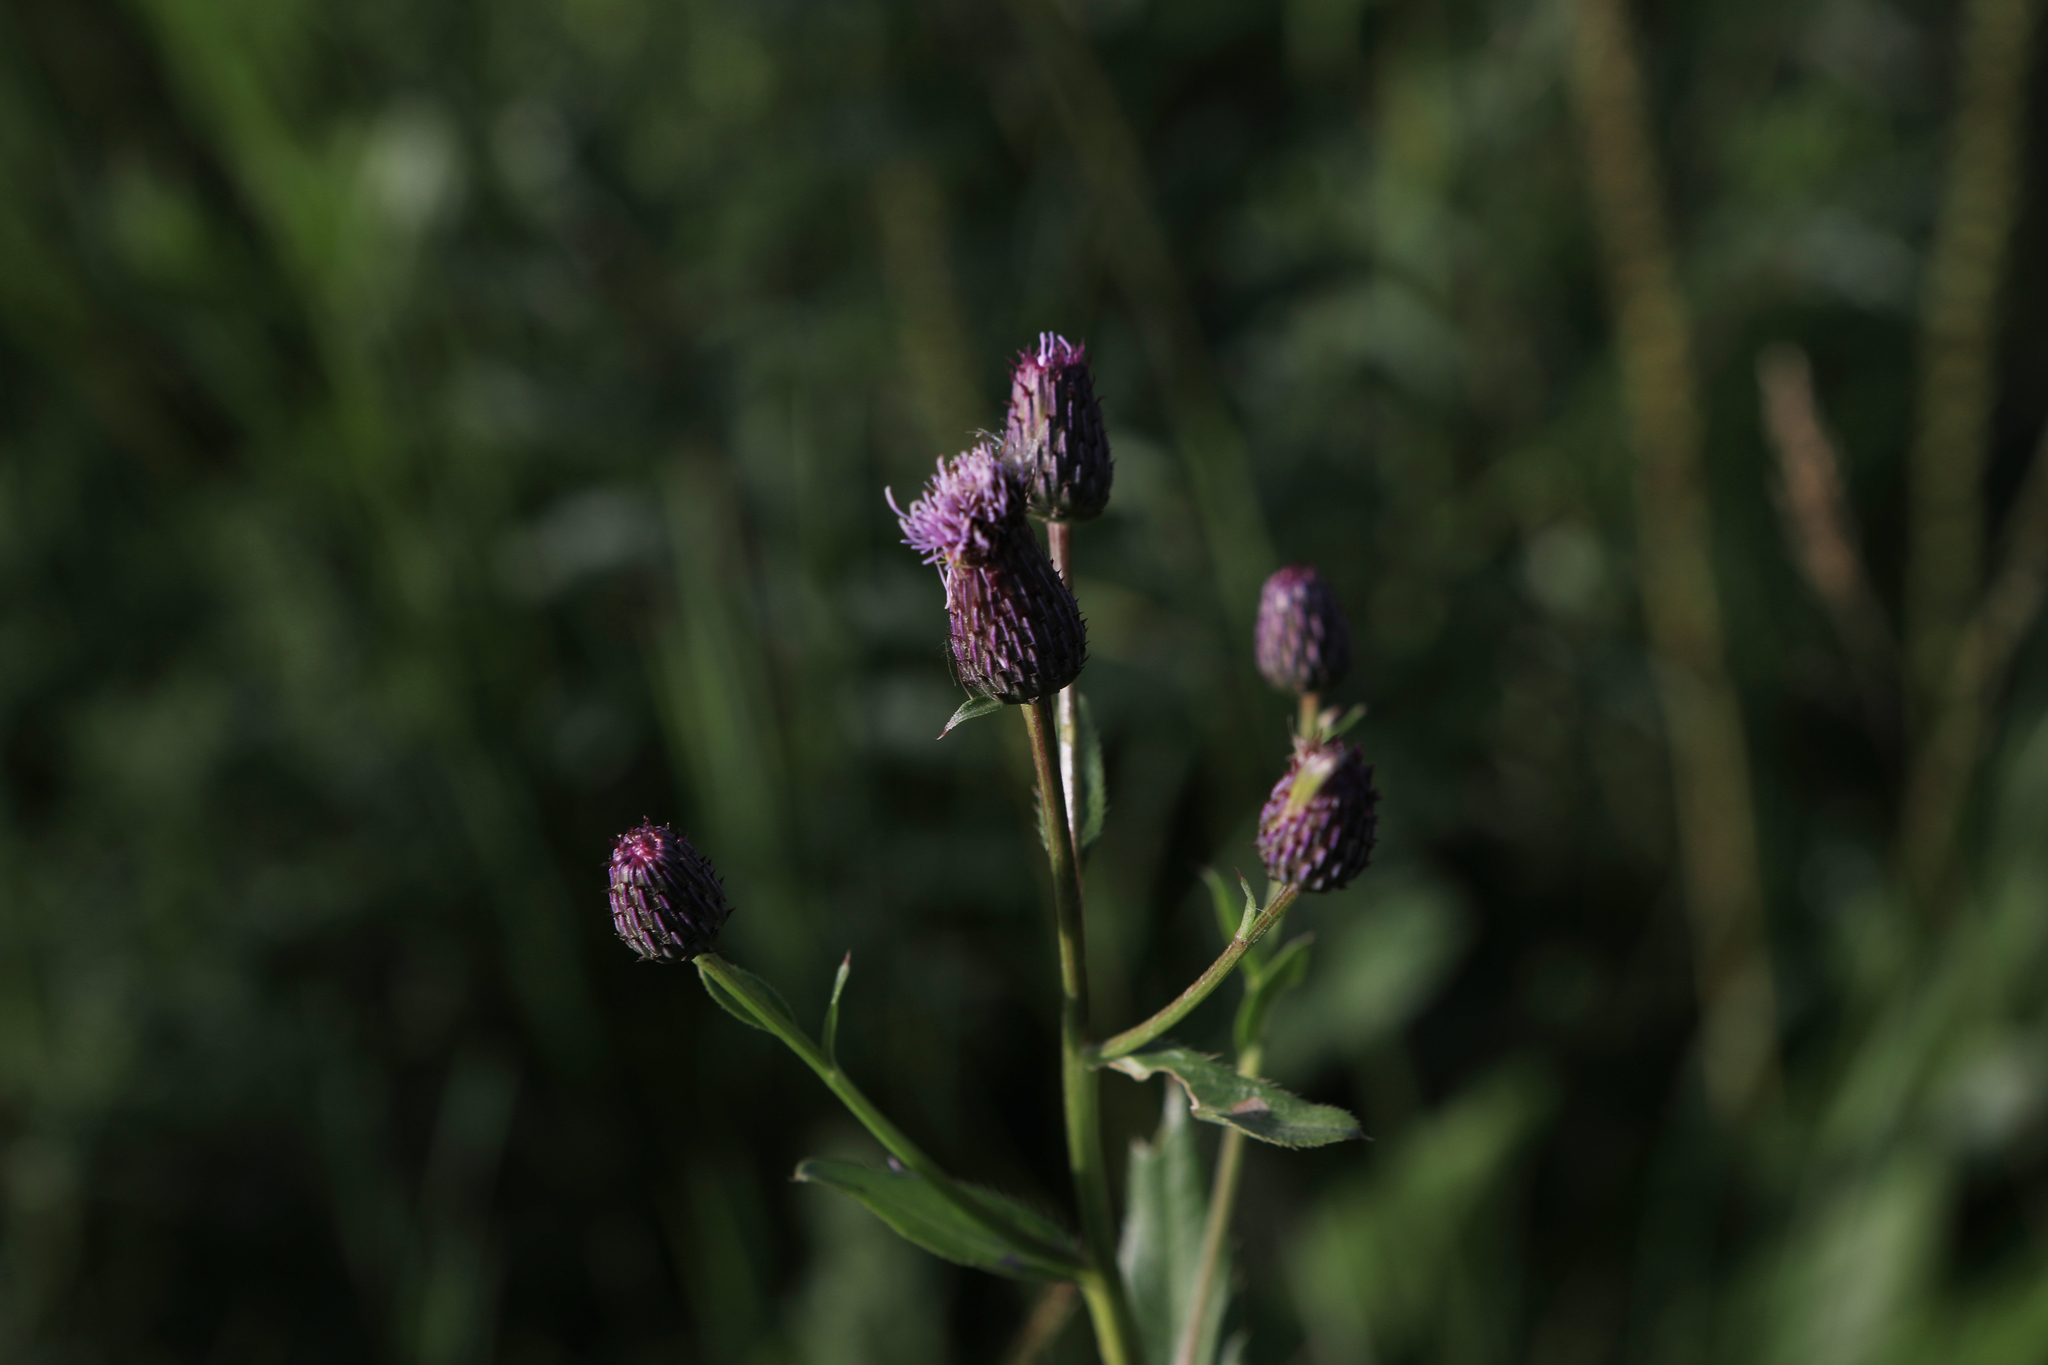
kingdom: Plantae
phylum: Tracheophyta
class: Magnoliopsida
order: Asterales
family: Asteraceae
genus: Cirsium
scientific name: Cirsium arvense
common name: Creeping thistle
